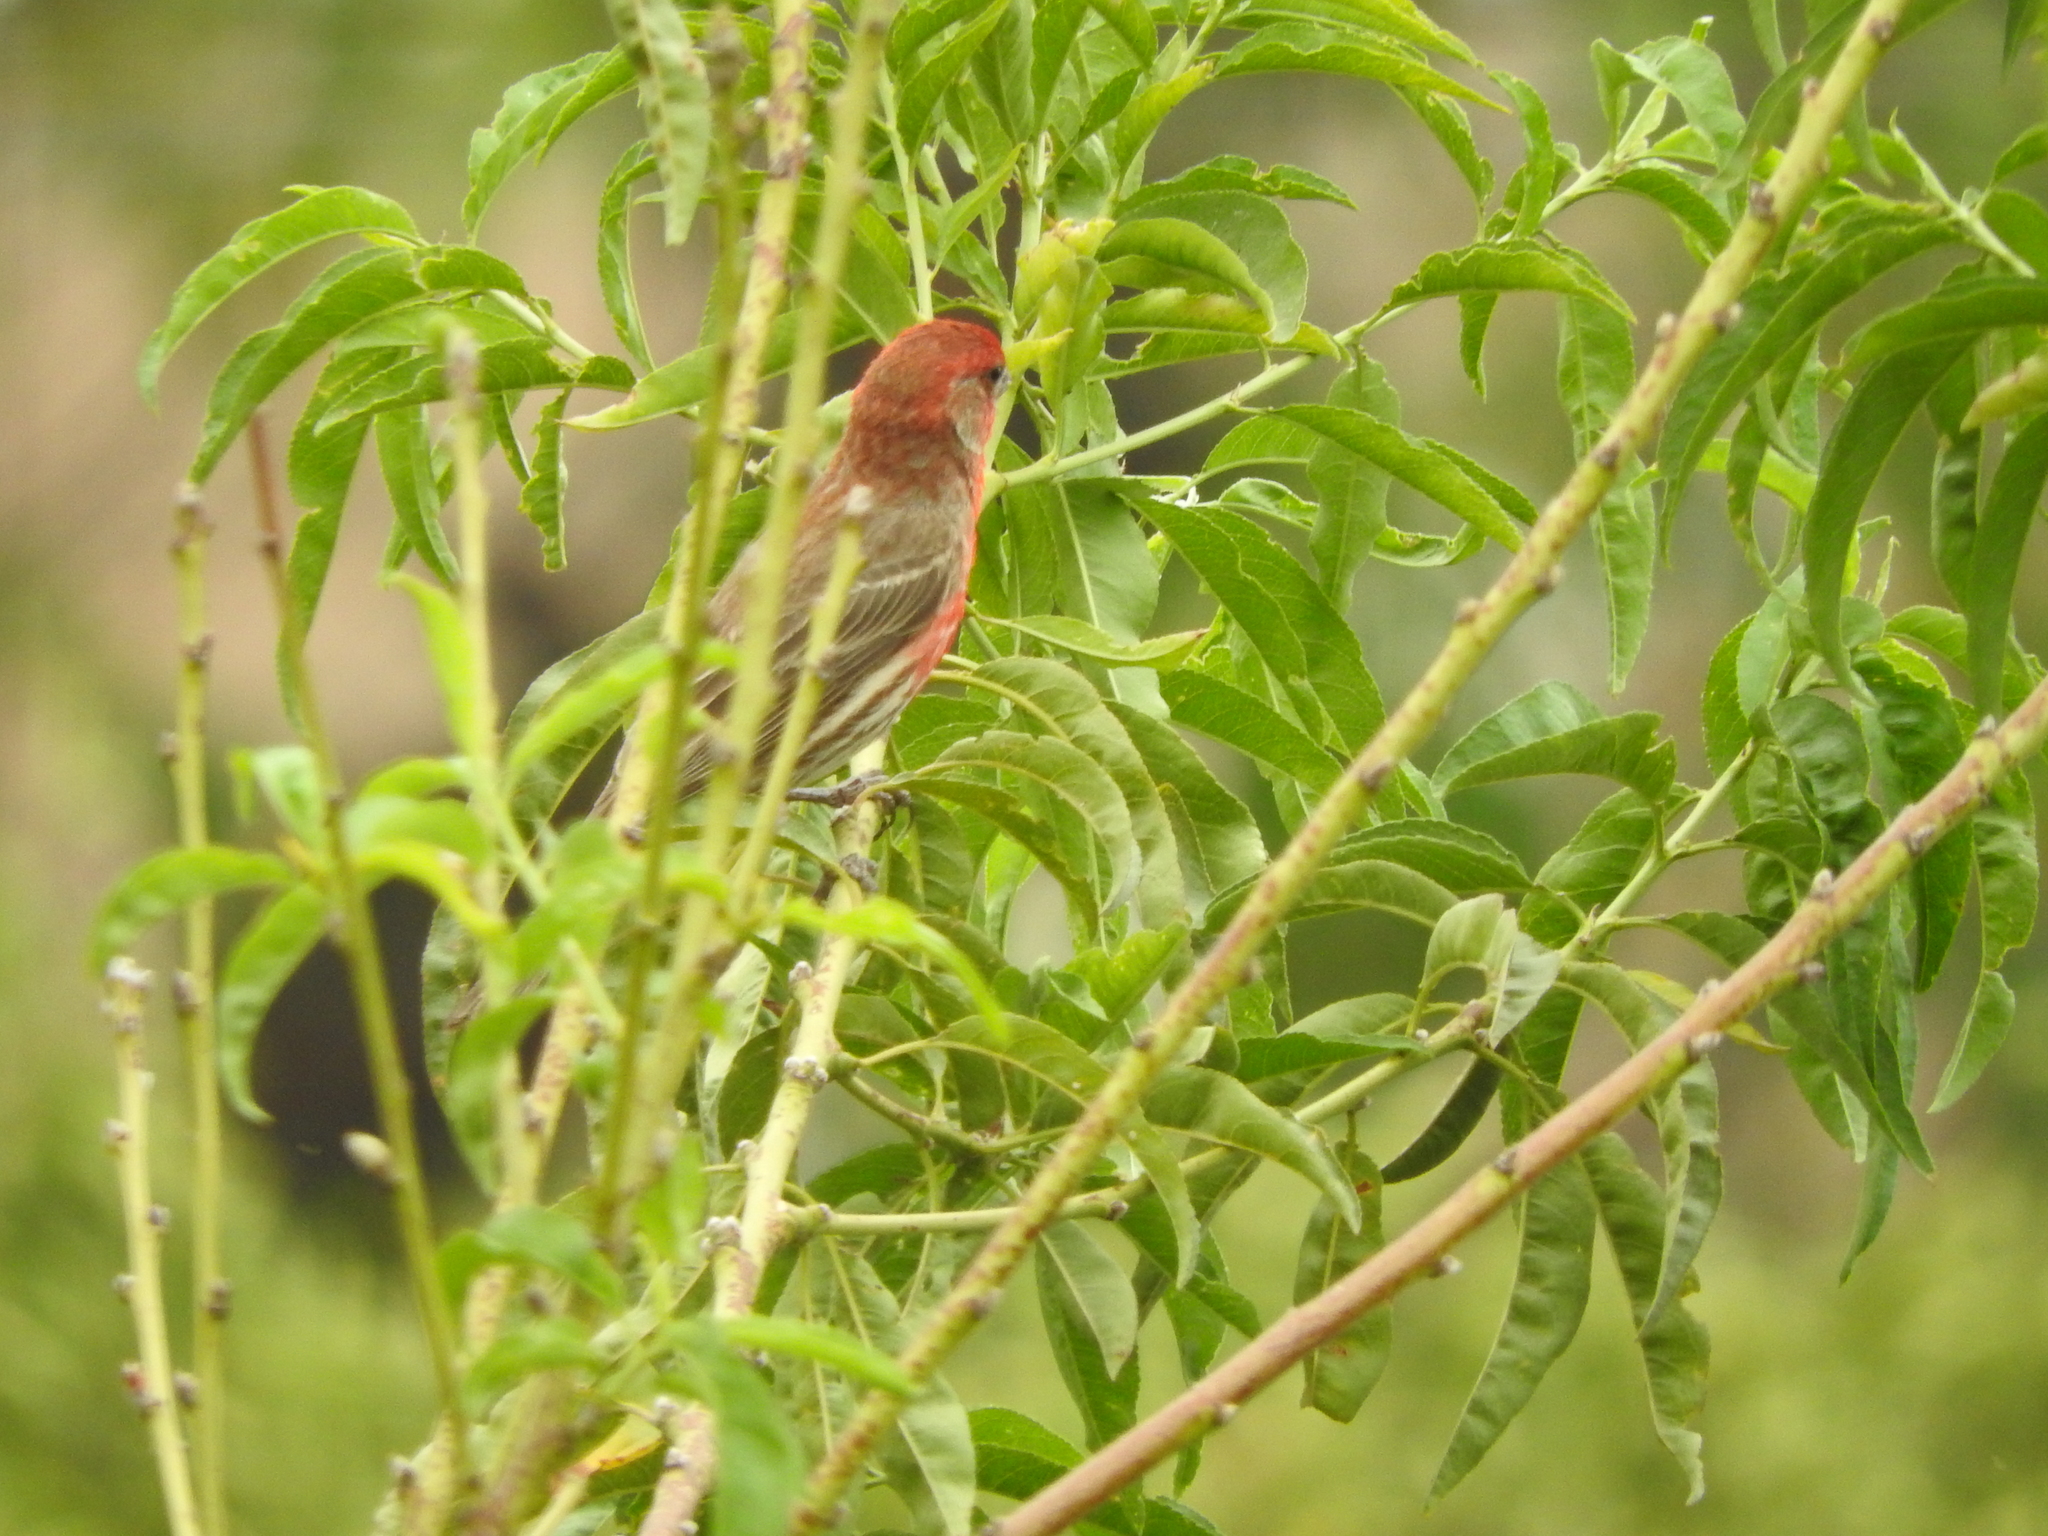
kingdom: Animalia
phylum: Chordata
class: Aves
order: Passeriformes
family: Fringillidae
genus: Haemorhous
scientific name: Haemorhous mexicanus
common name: House finch
